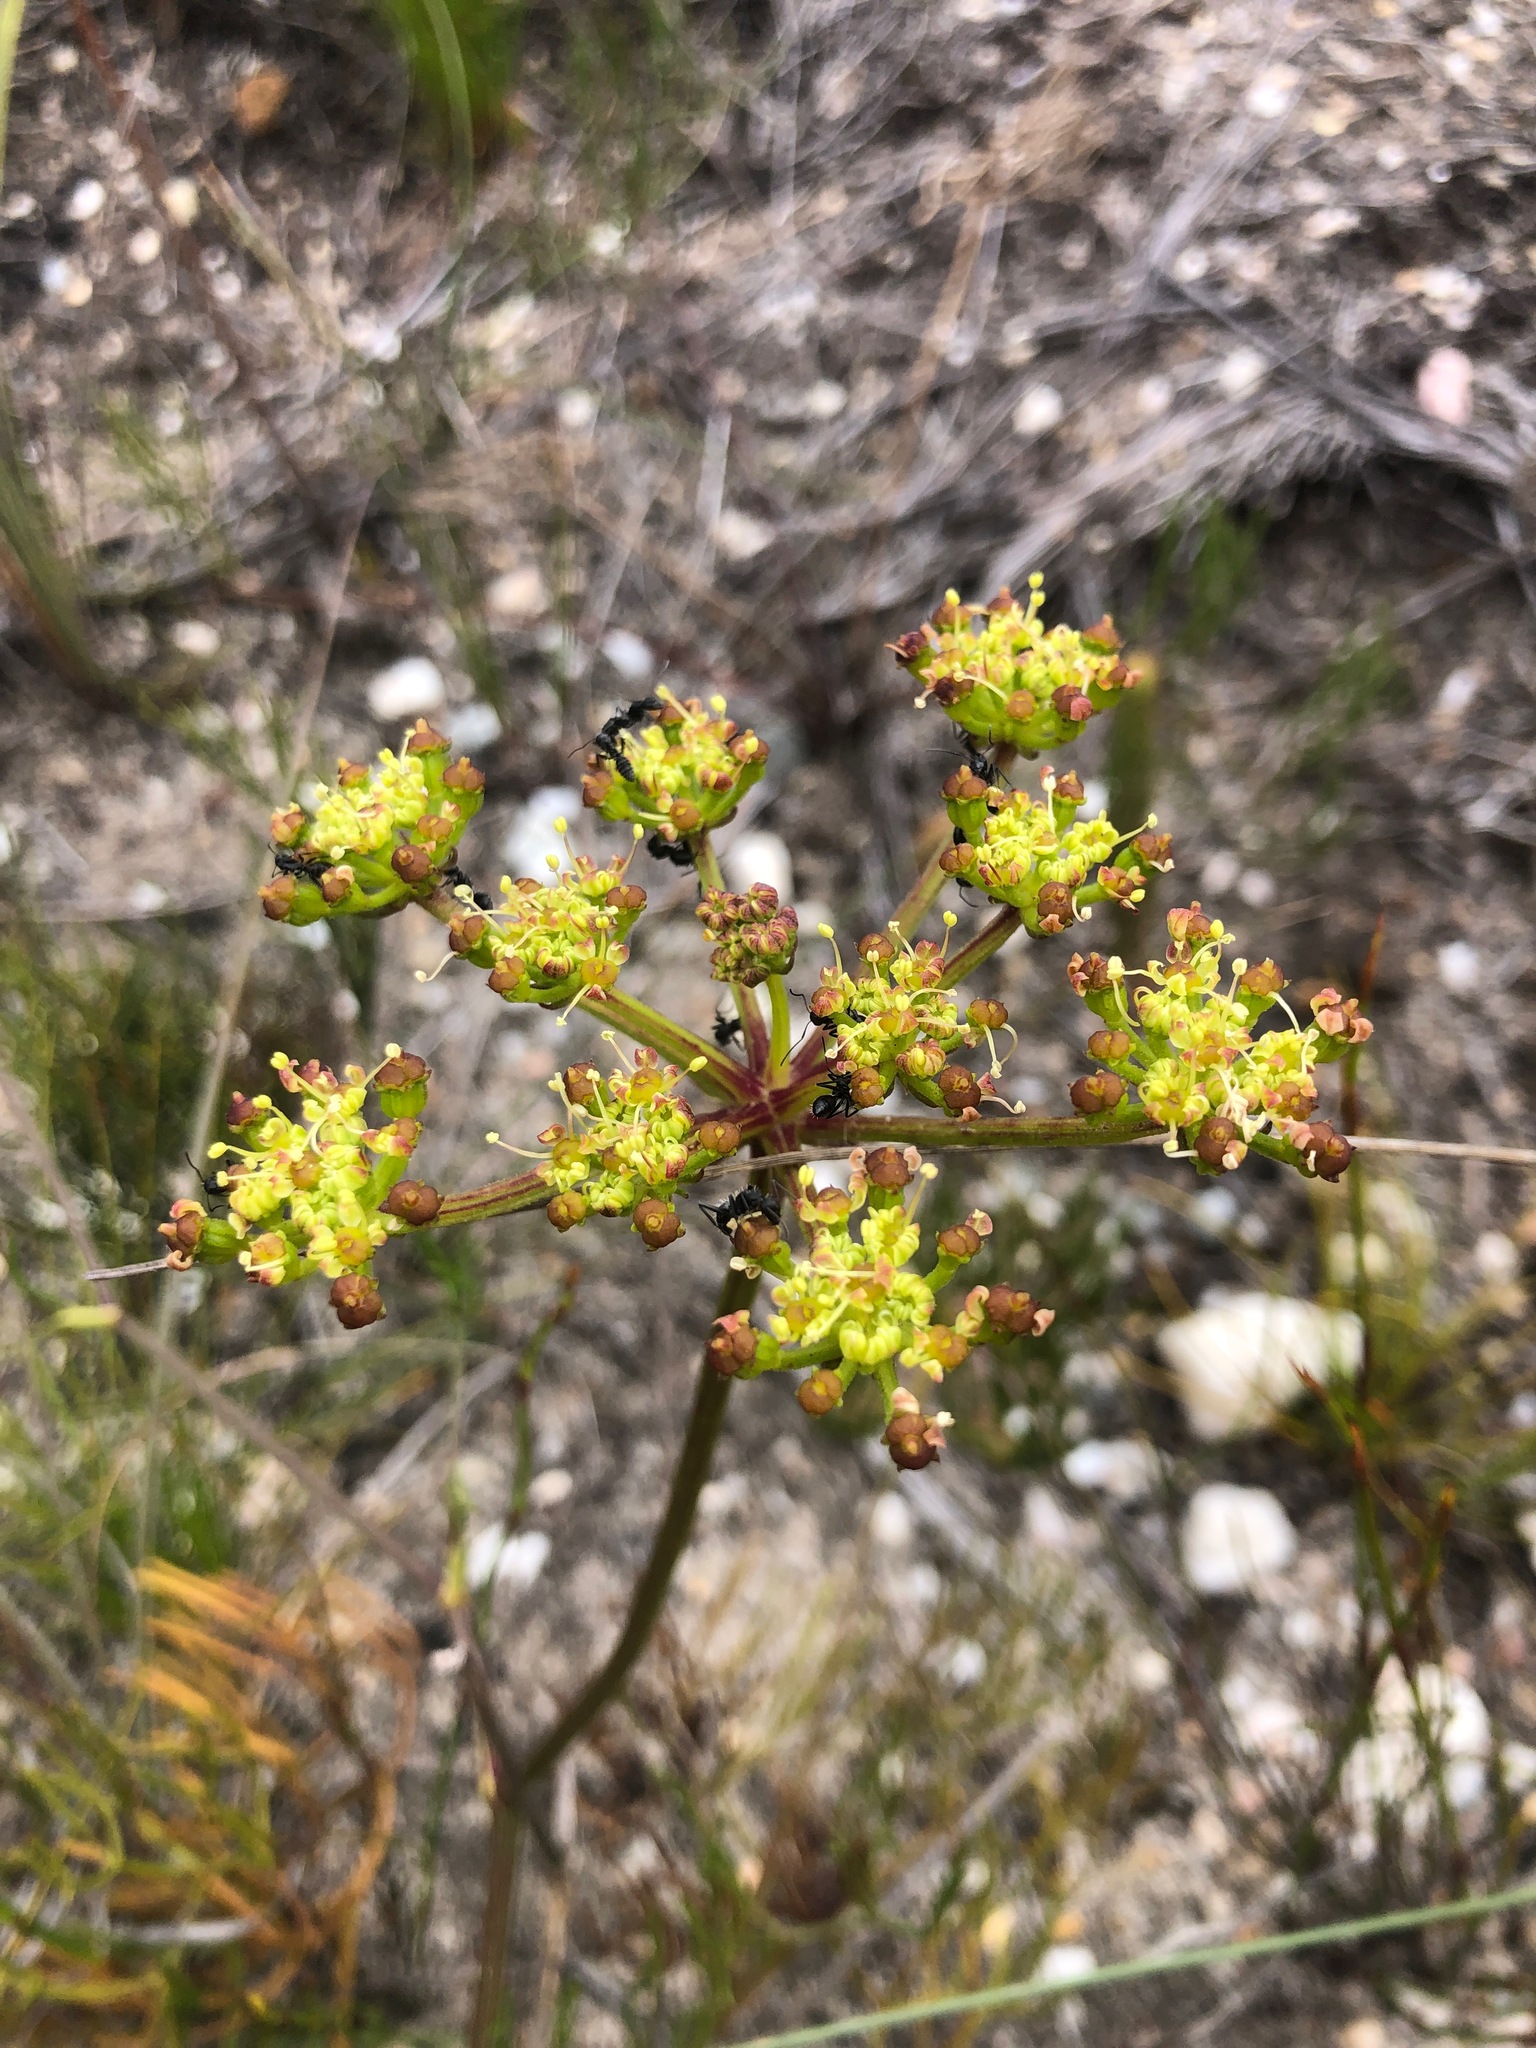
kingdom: Plantae
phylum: Tracheophyta
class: Magnoliopsida
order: Apiales
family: Apiaceae
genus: Nanobubon
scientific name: Nanobubon capillaceum
